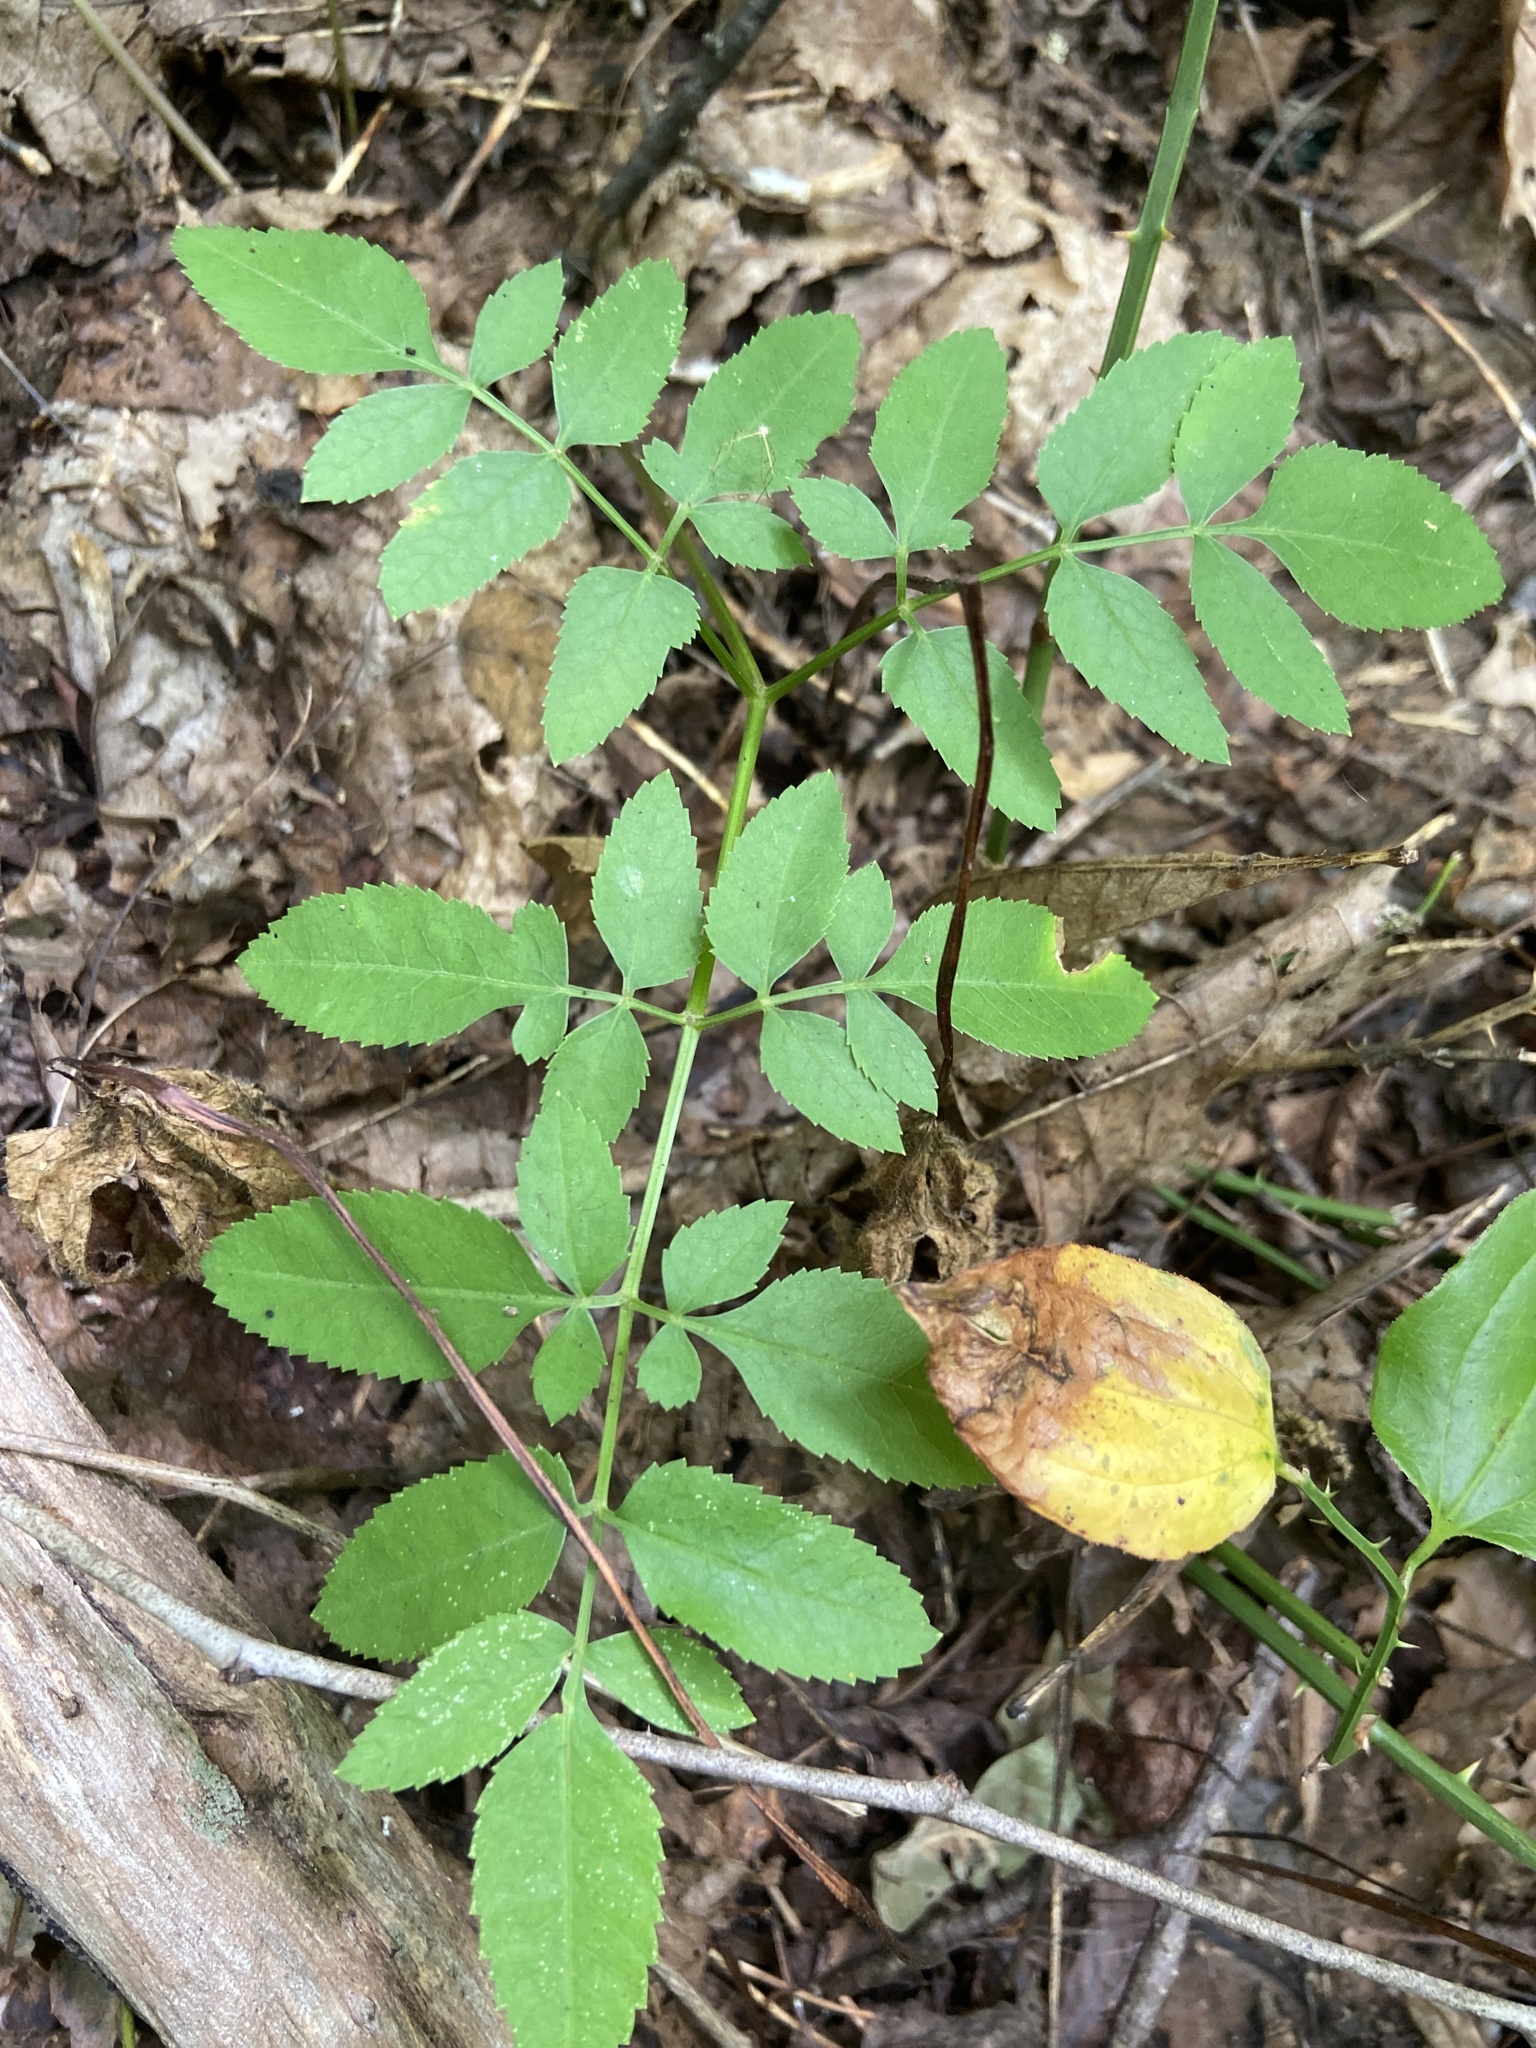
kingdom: Plantae
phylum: Tracheophyta
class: Magnoliopsida
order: Apiales
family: Apiaceae
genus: Angelica
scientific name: Angelica venenosa
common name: Hairy angelica
